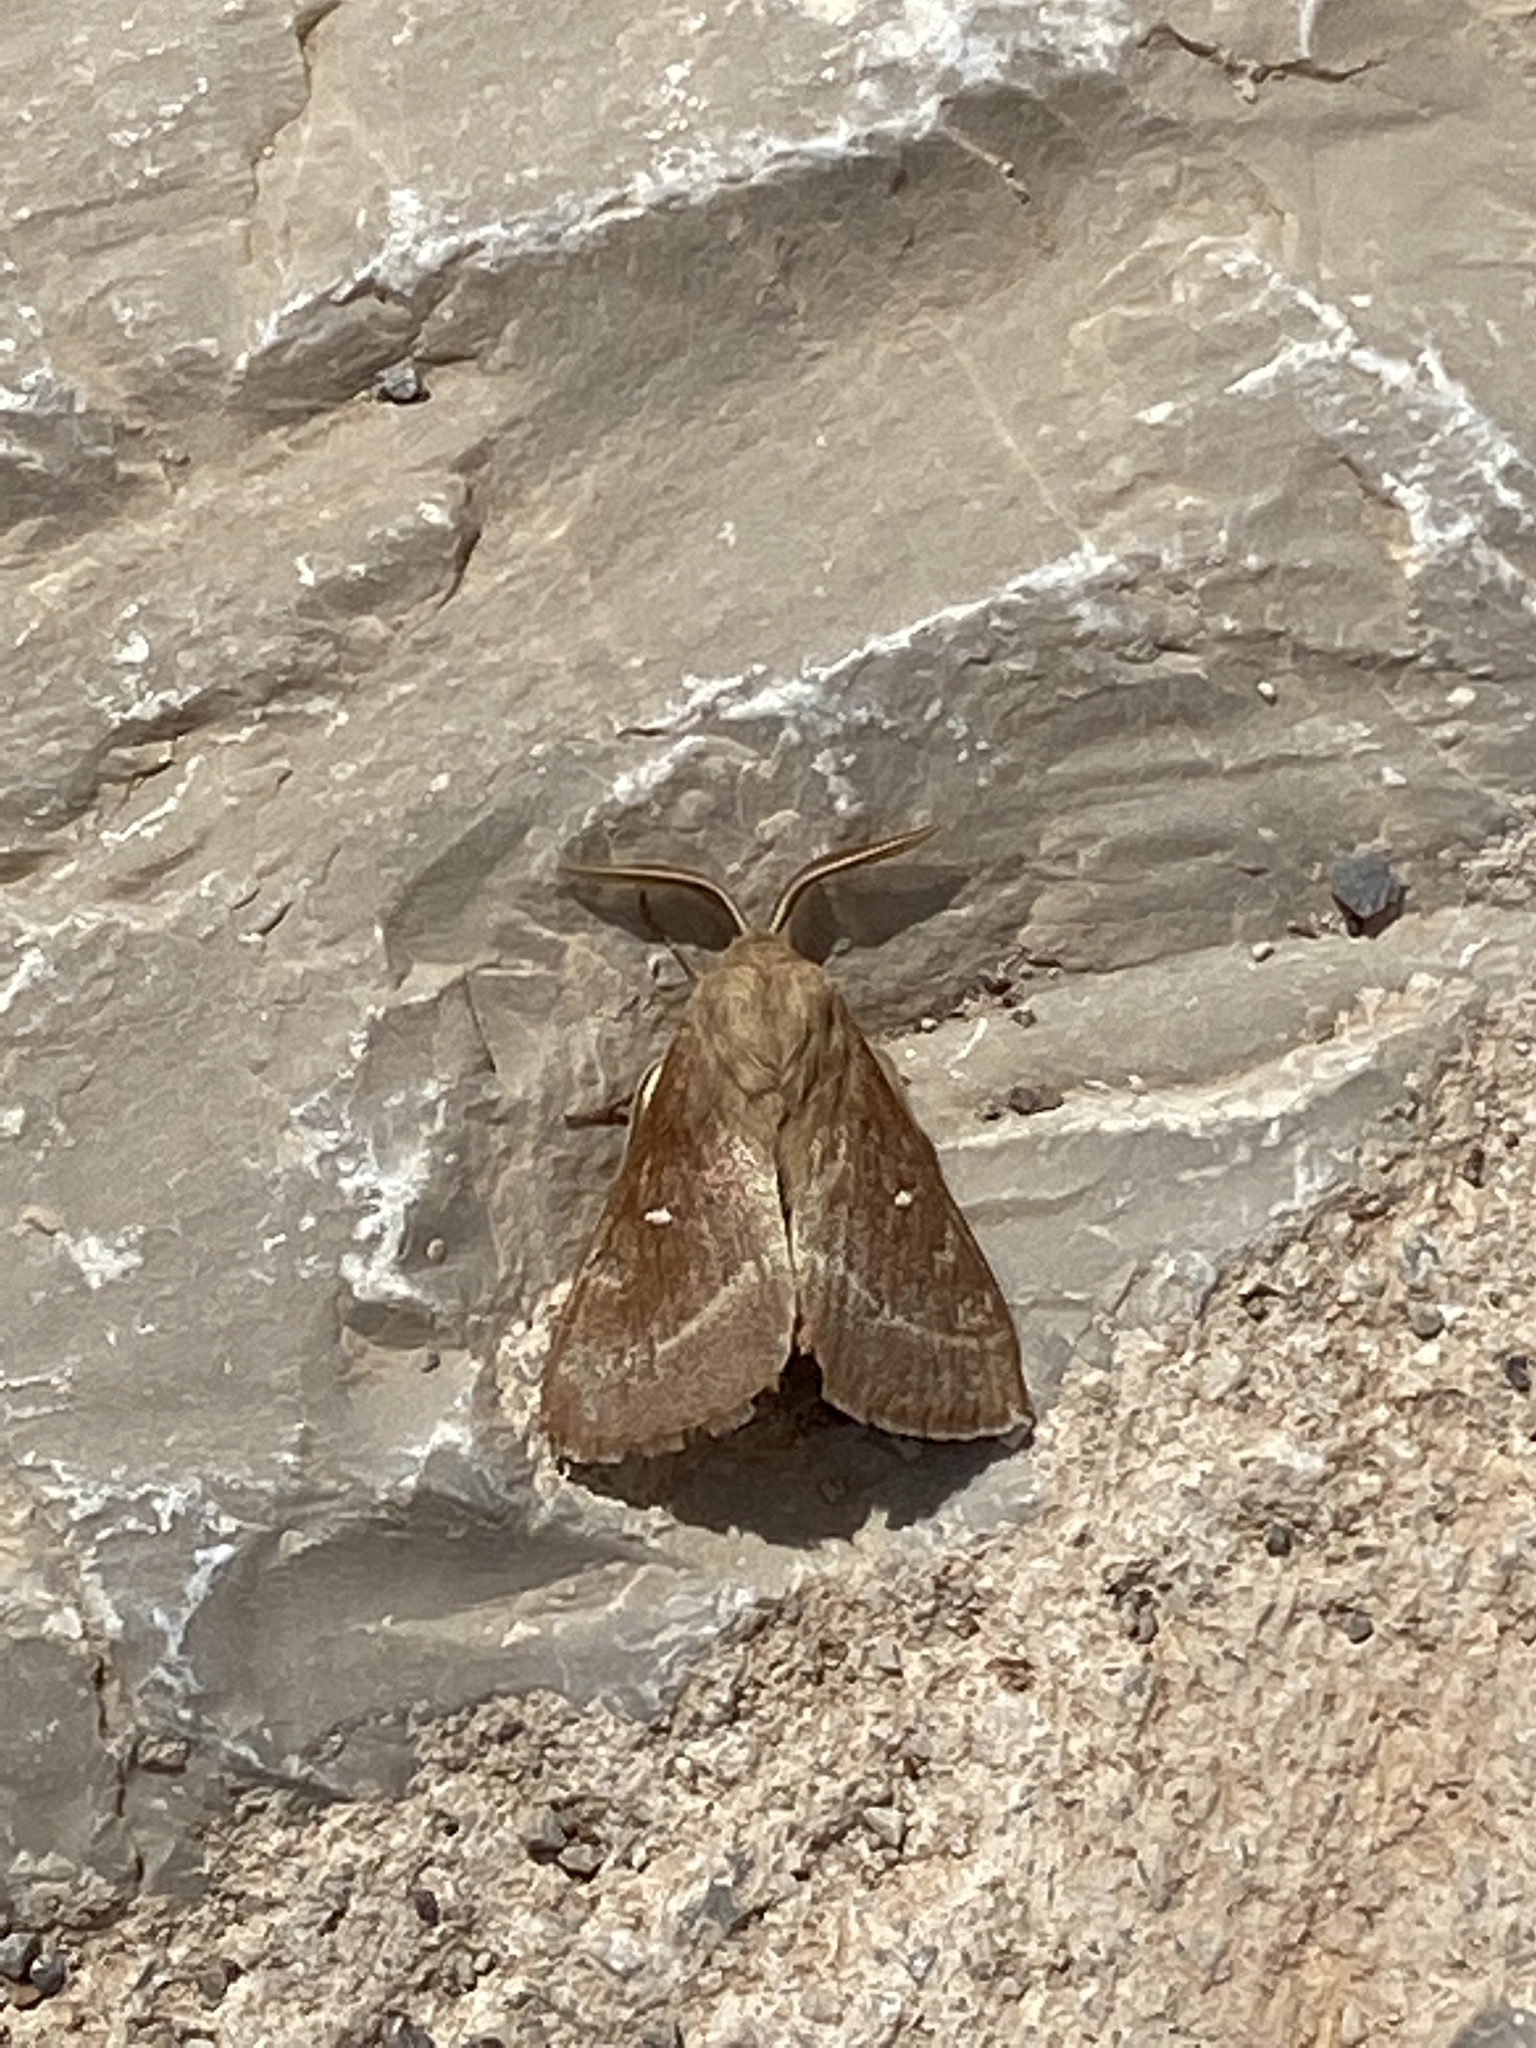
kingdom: Animalia
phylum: Arthropoda
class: Insecta
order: Lepidoptera
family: Lasiocampidae
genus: Lasiocampa
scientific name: Lasiocampa trifolii
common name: Grass eggar
